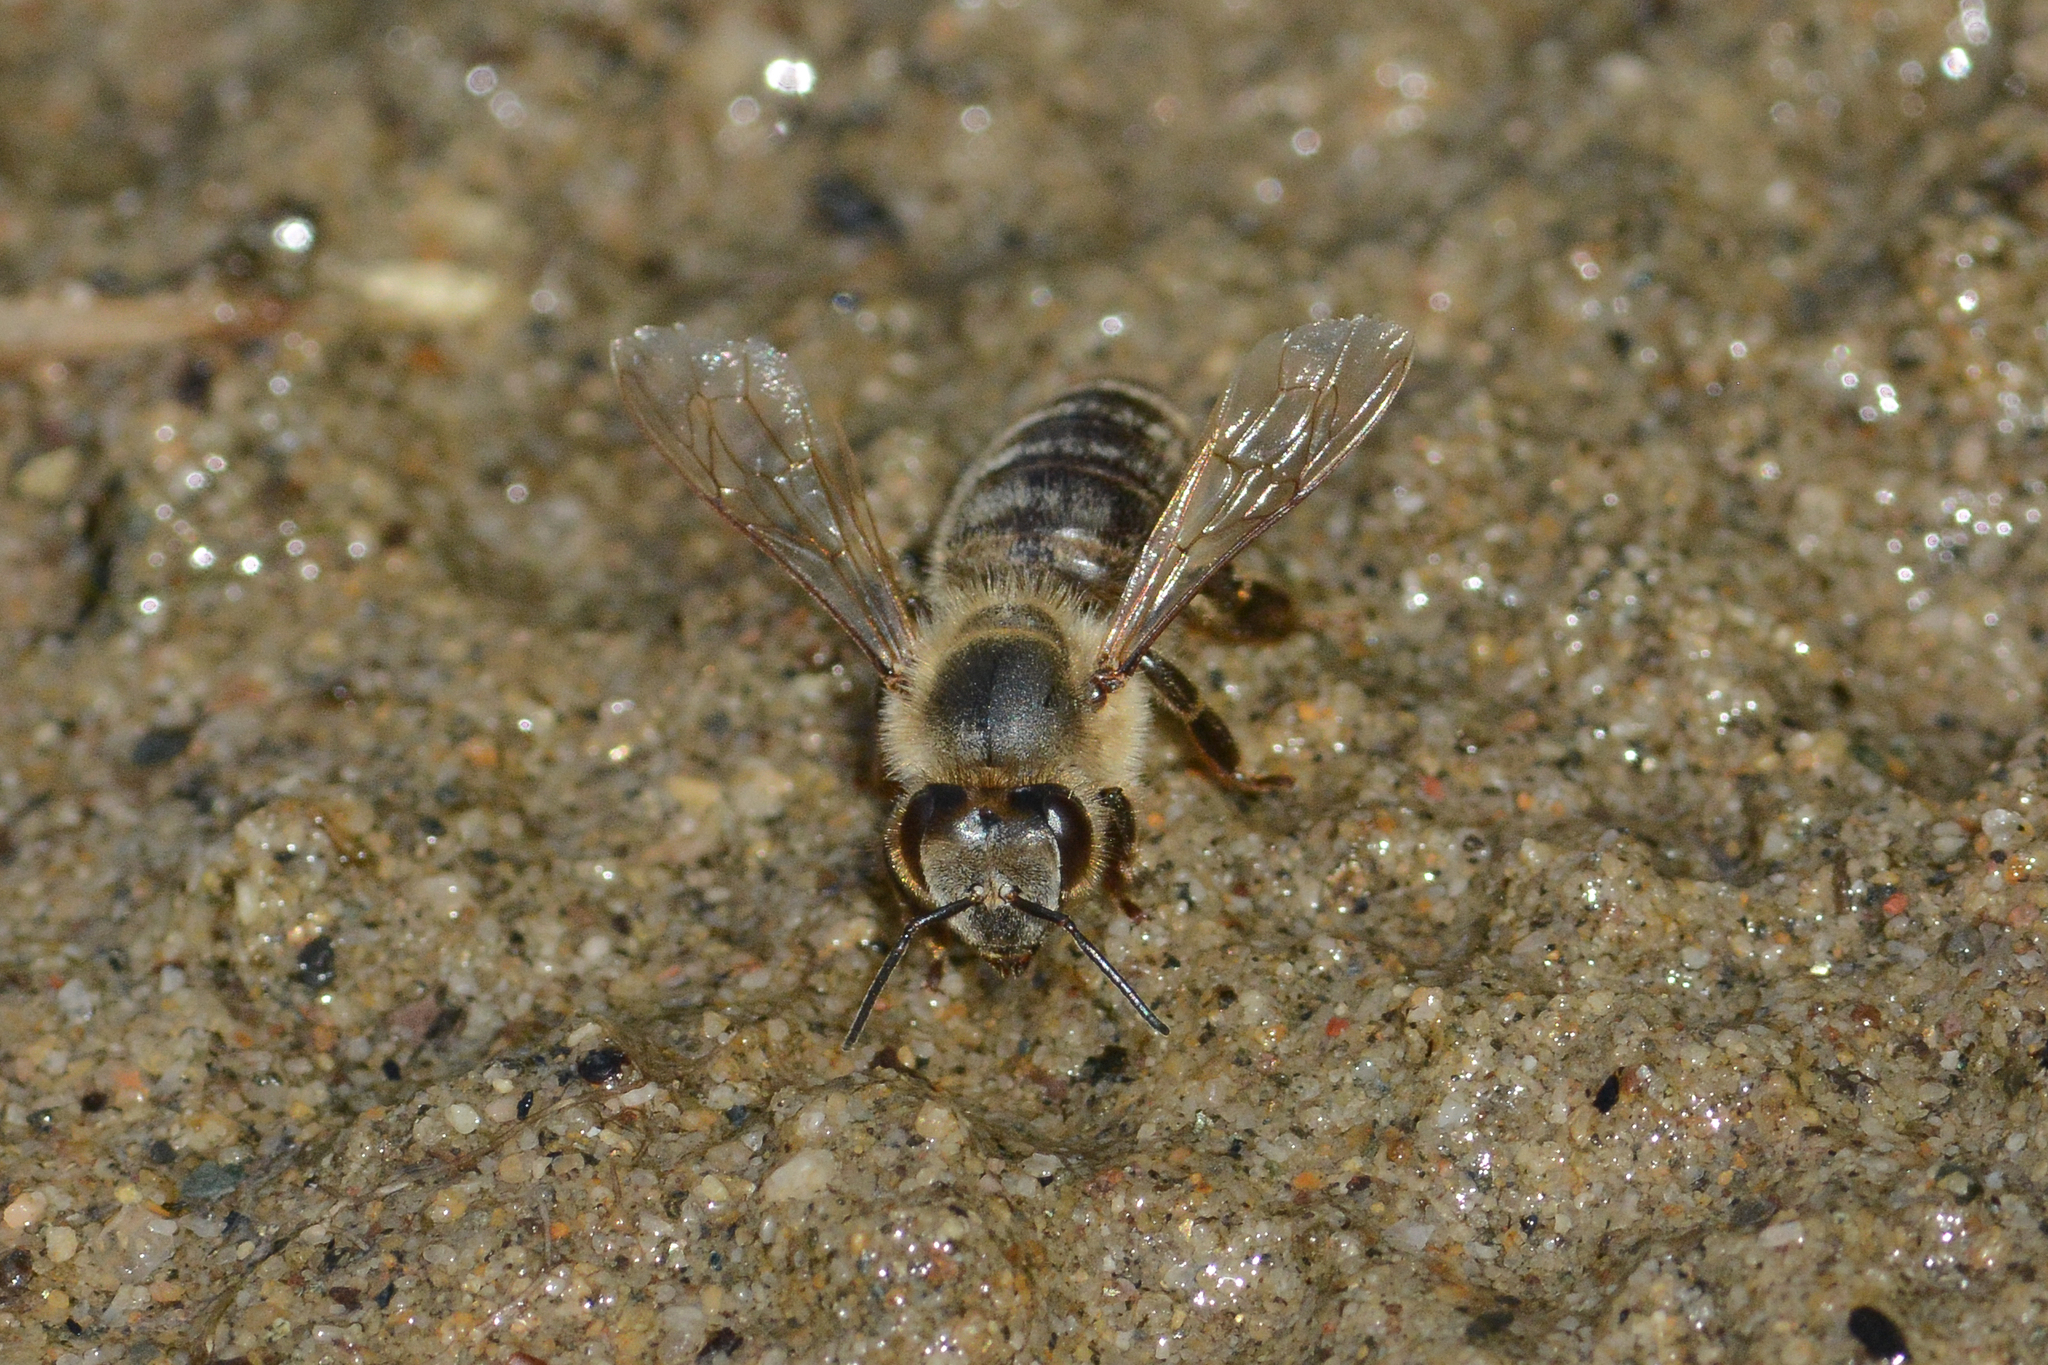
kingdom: Animalia
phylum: Arthropoda
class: Insecta
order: Hymenoptera
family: Apidae
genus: Apis
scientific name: Apis mellifera
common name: Honey bee
